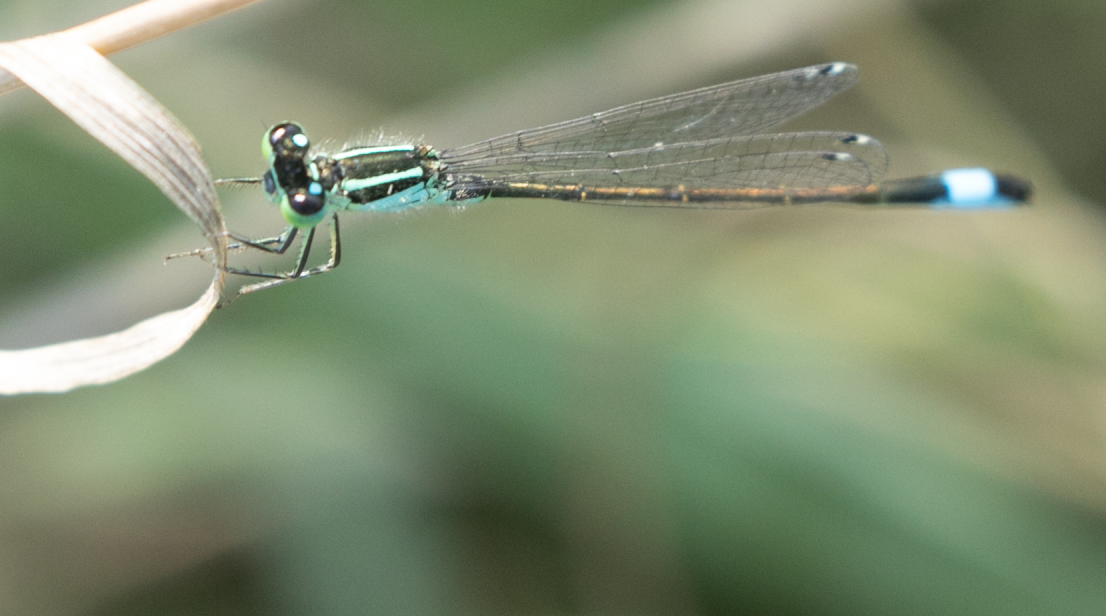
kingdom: Animalia
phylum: Arthropoda
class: Insecta
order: Odonata
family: Coenagrionidae
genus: Ischnura
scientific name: Ischnura elegans
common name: Blue-tailed damselfly
